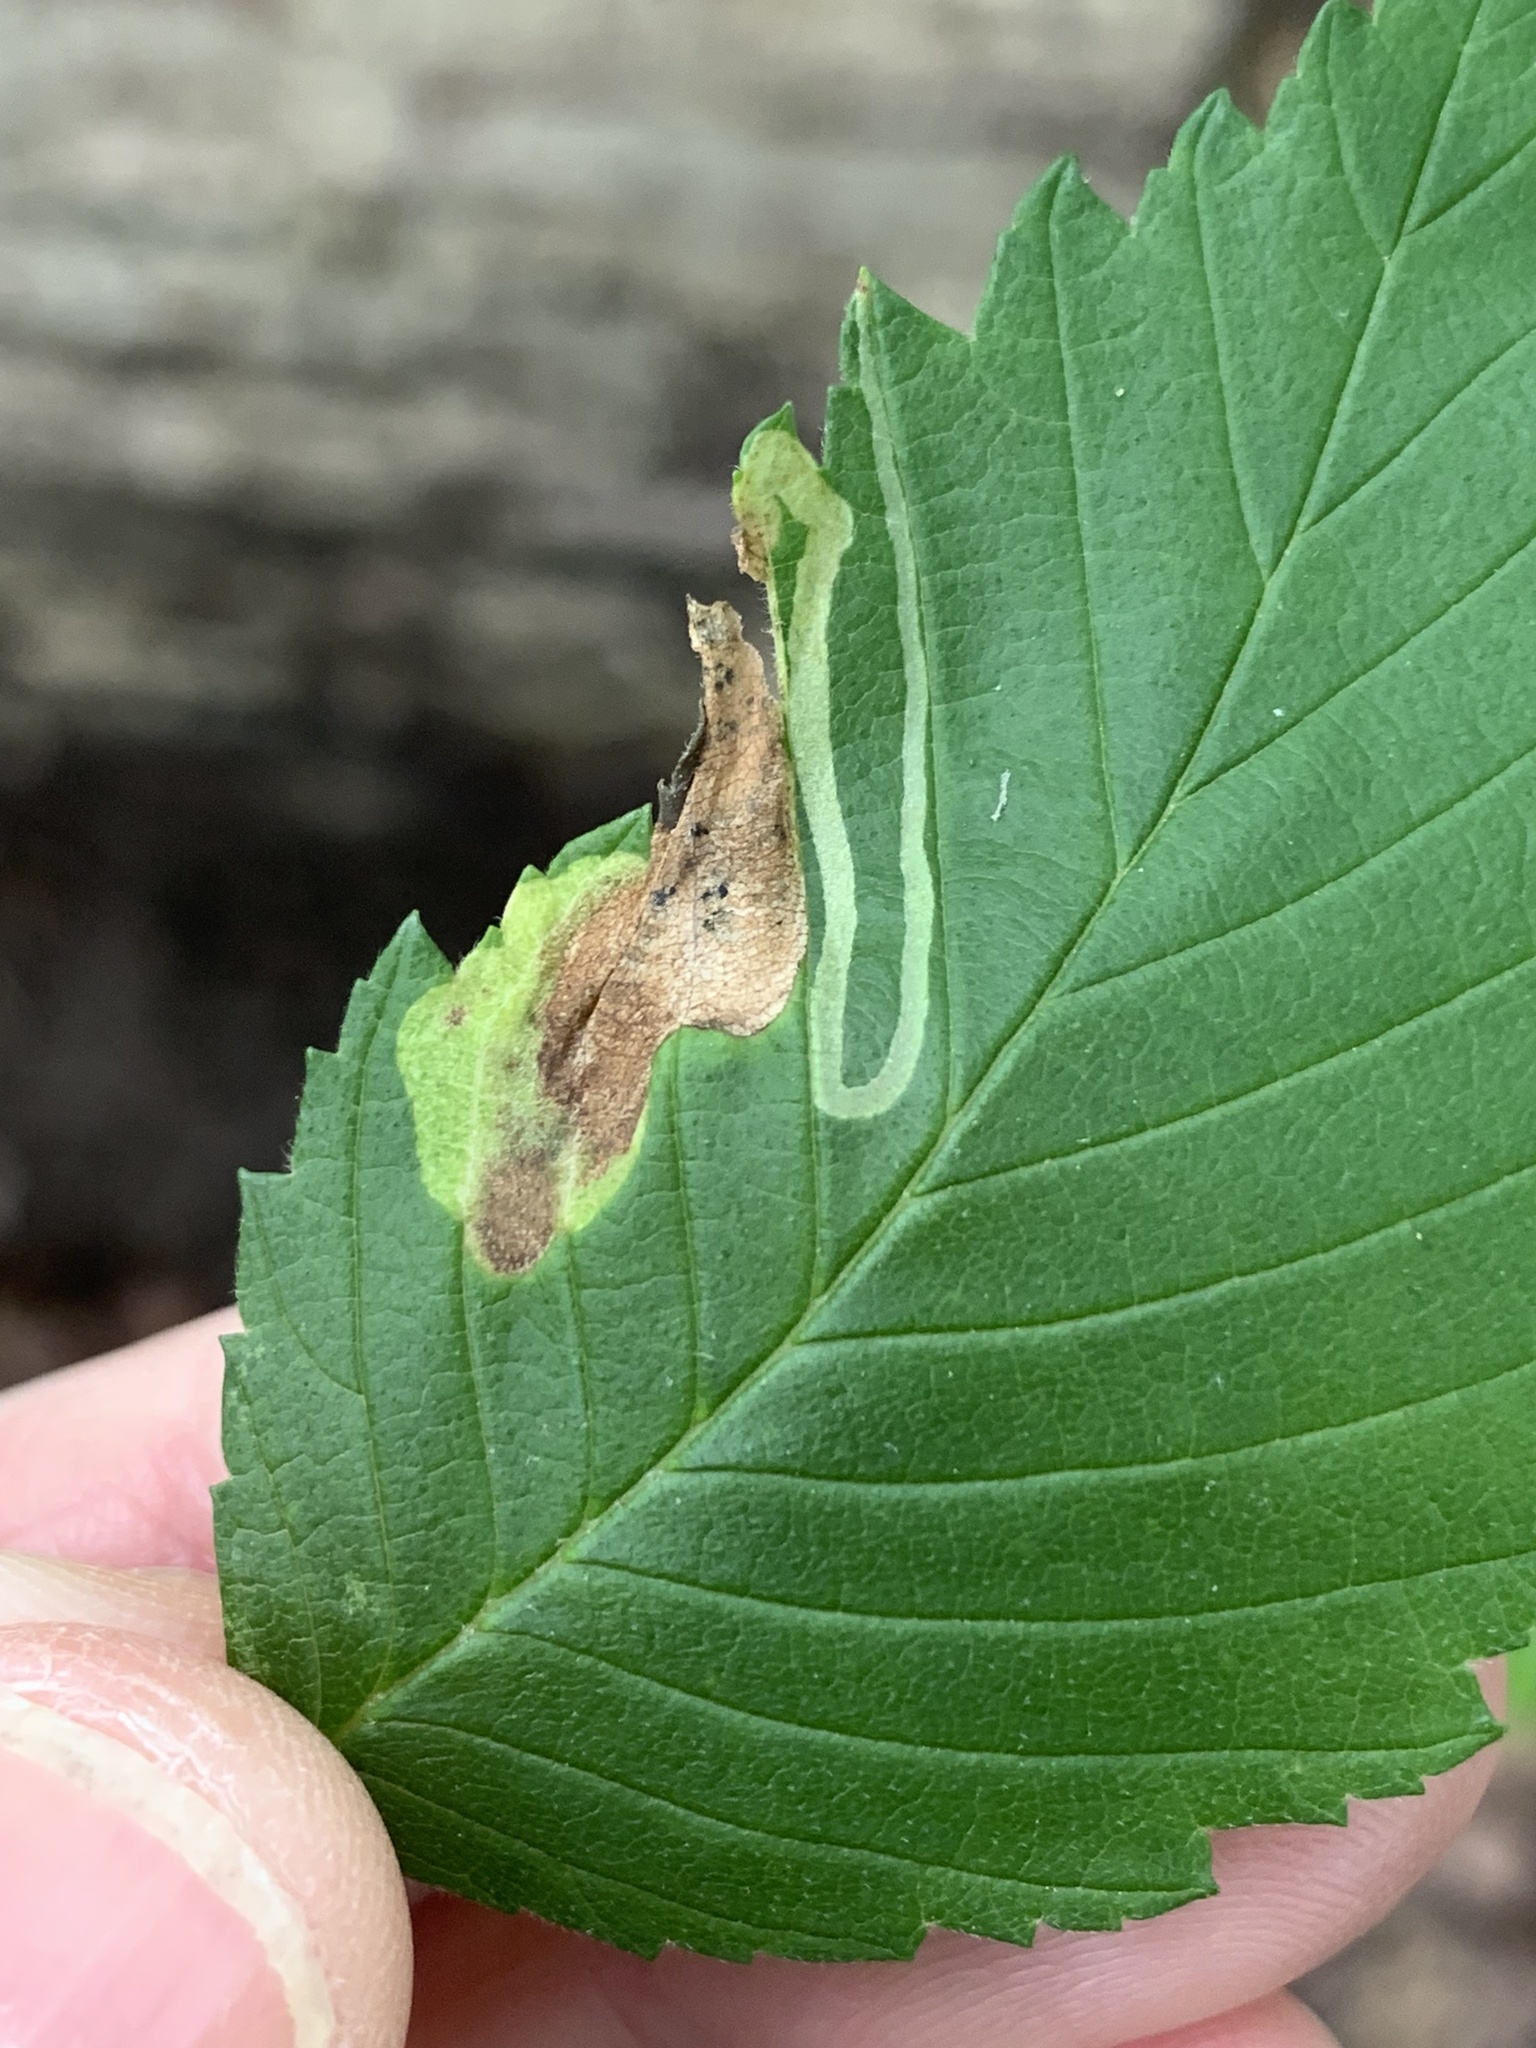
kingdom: Animalia
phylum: Arthropoda
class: Insecta
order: Diptera
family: Agromyzidae
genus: Agromyza
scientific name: Agromyza aristata
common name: Elm agromyzid leafminer
